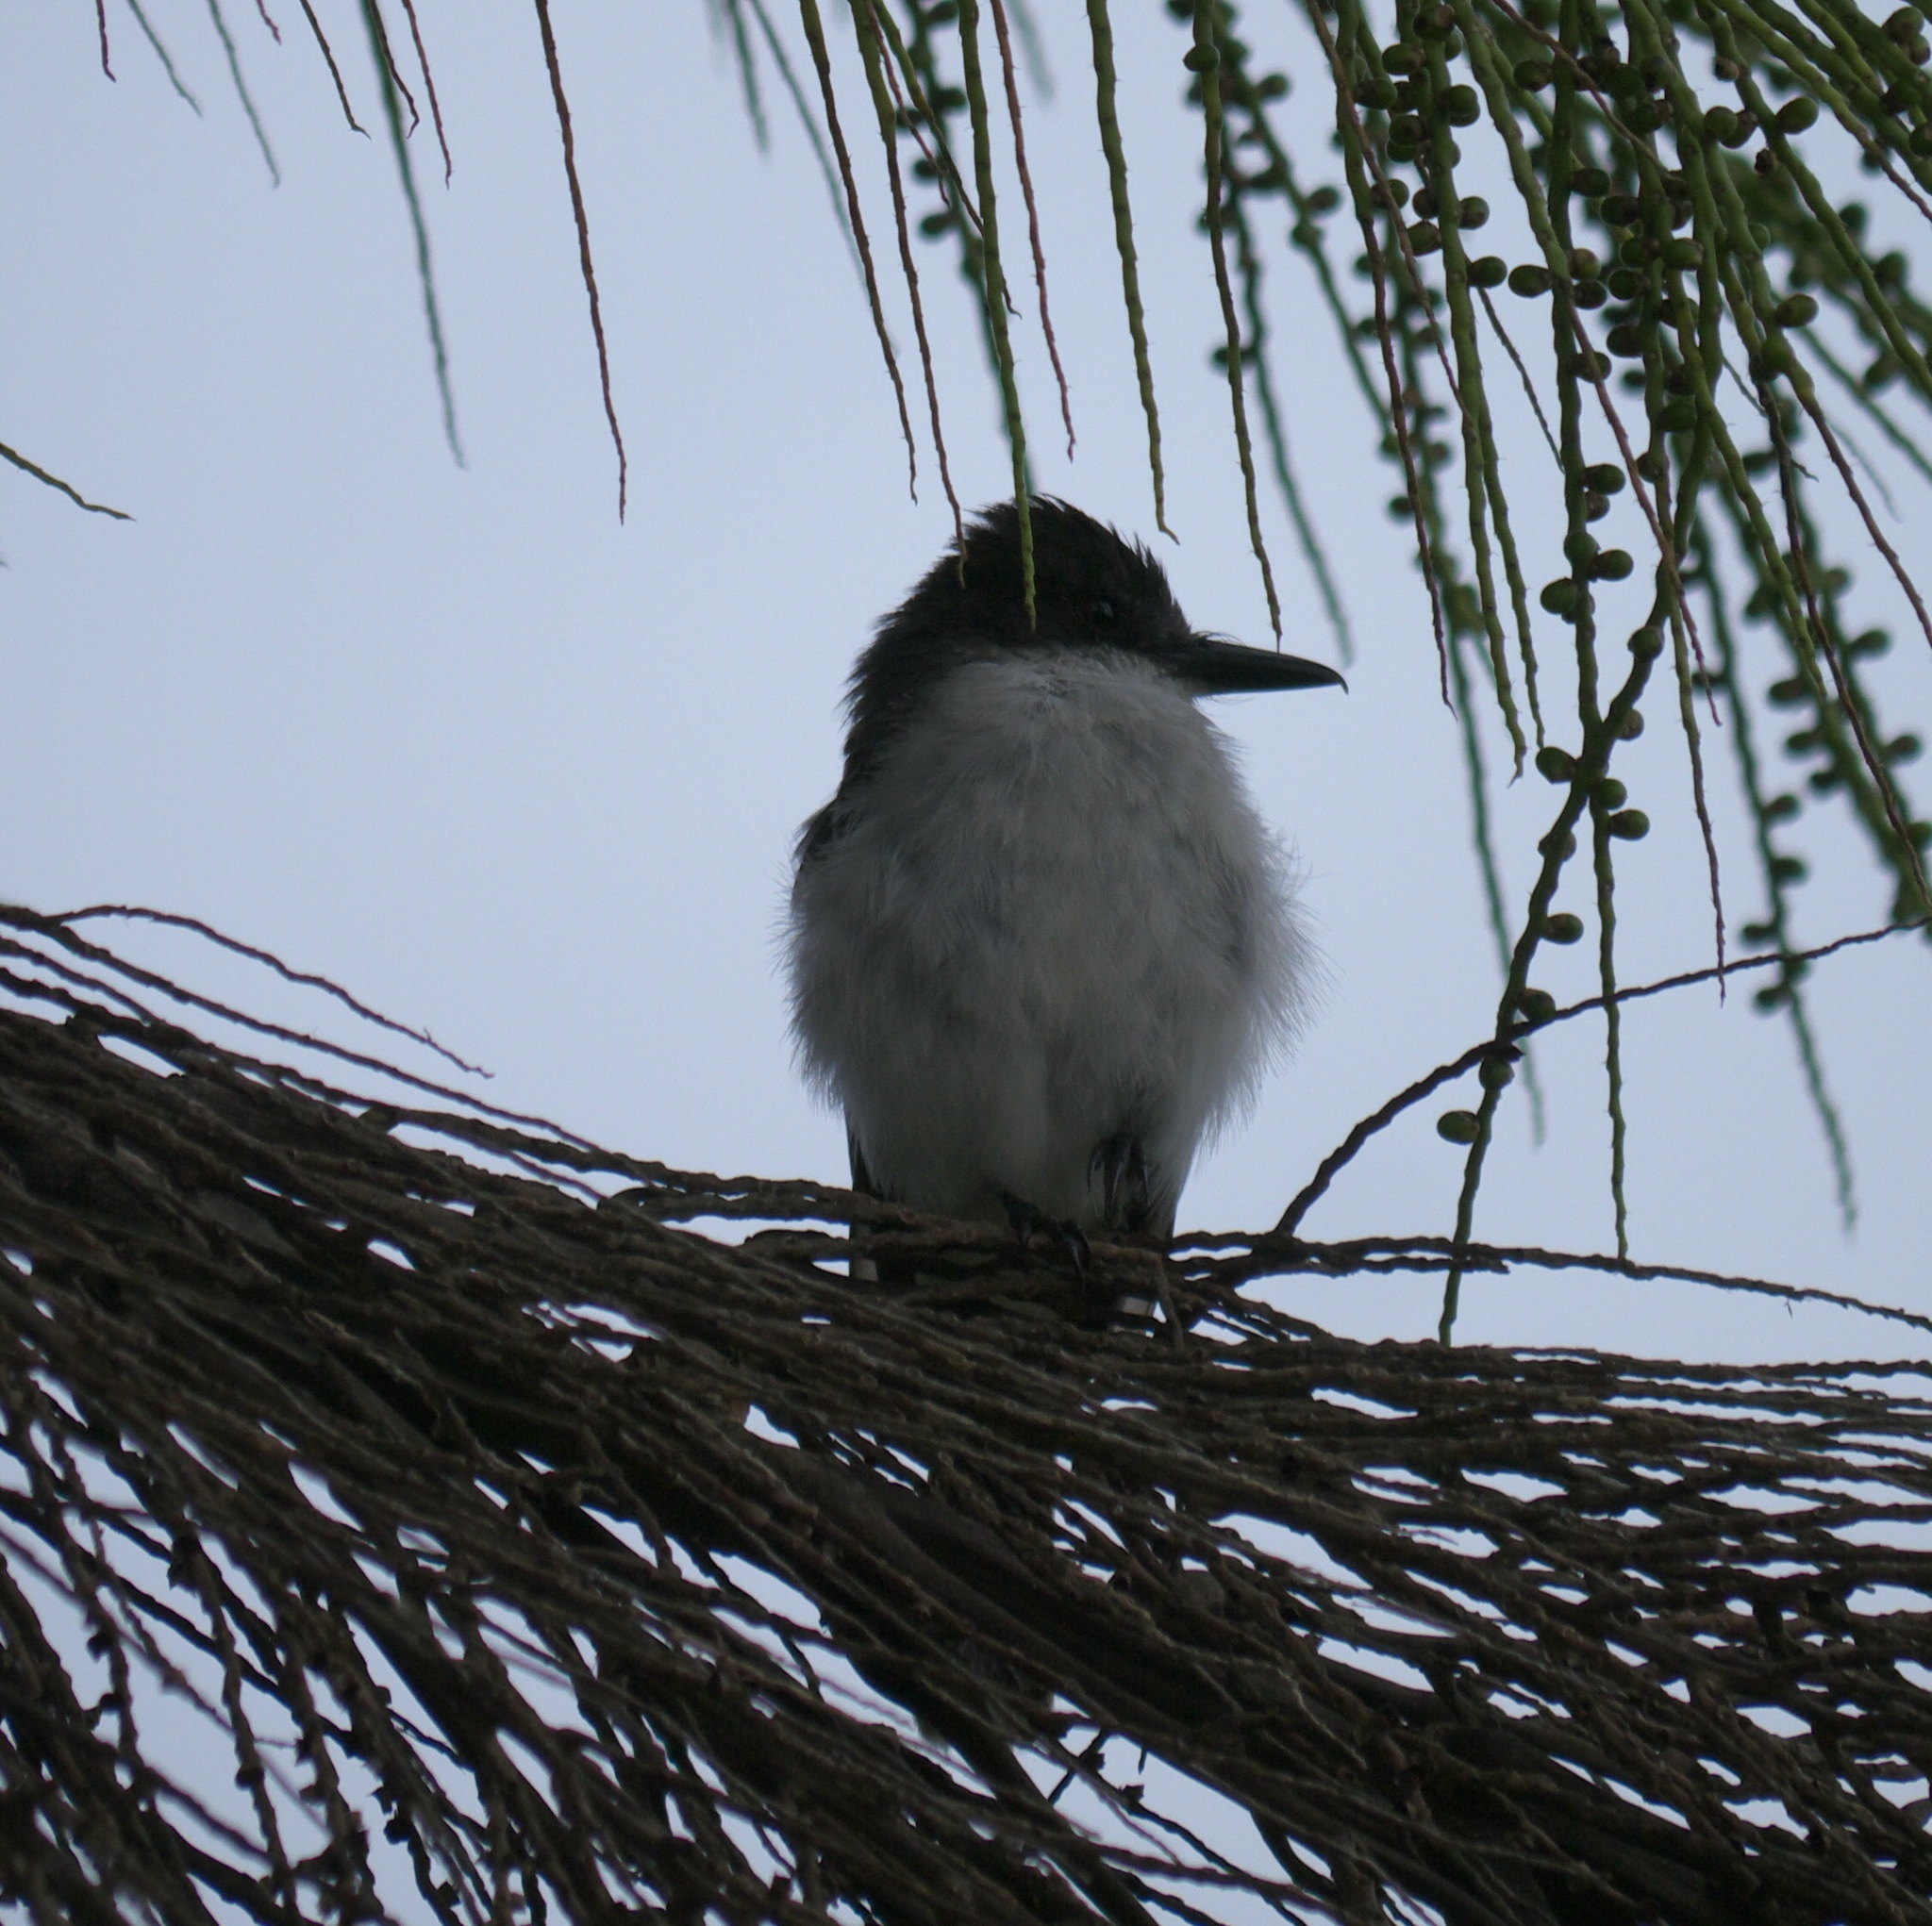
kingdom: Animalia
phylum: Chordata
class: Aves
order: Passeriformes
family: Tyrannidae
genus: Tyrannus
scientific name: Tyrannus caudifasciatus
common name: Loggerhead kingbird
